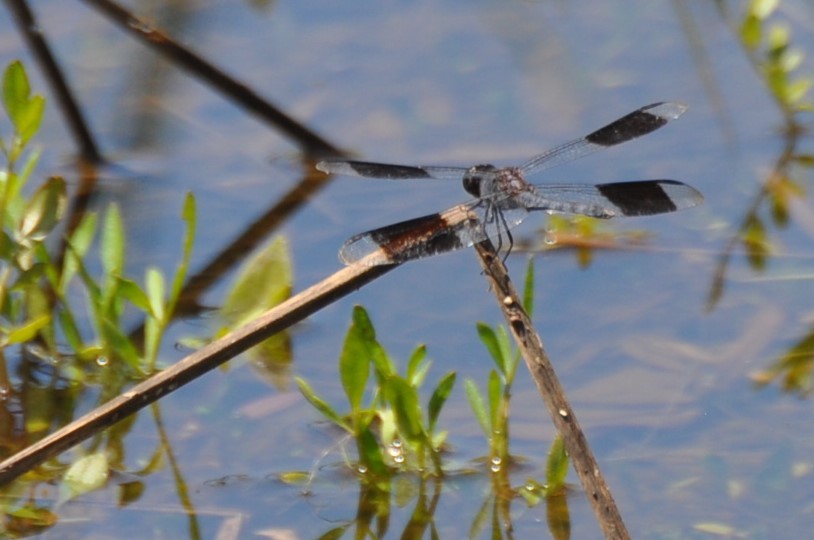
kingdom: Animalia
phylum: Arthropoda
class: Insecta
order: Odonata
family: Libellulidae
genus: Erythrodiplax
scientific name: Erythrodiplax umbrata
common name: Band-winged dragonlet
